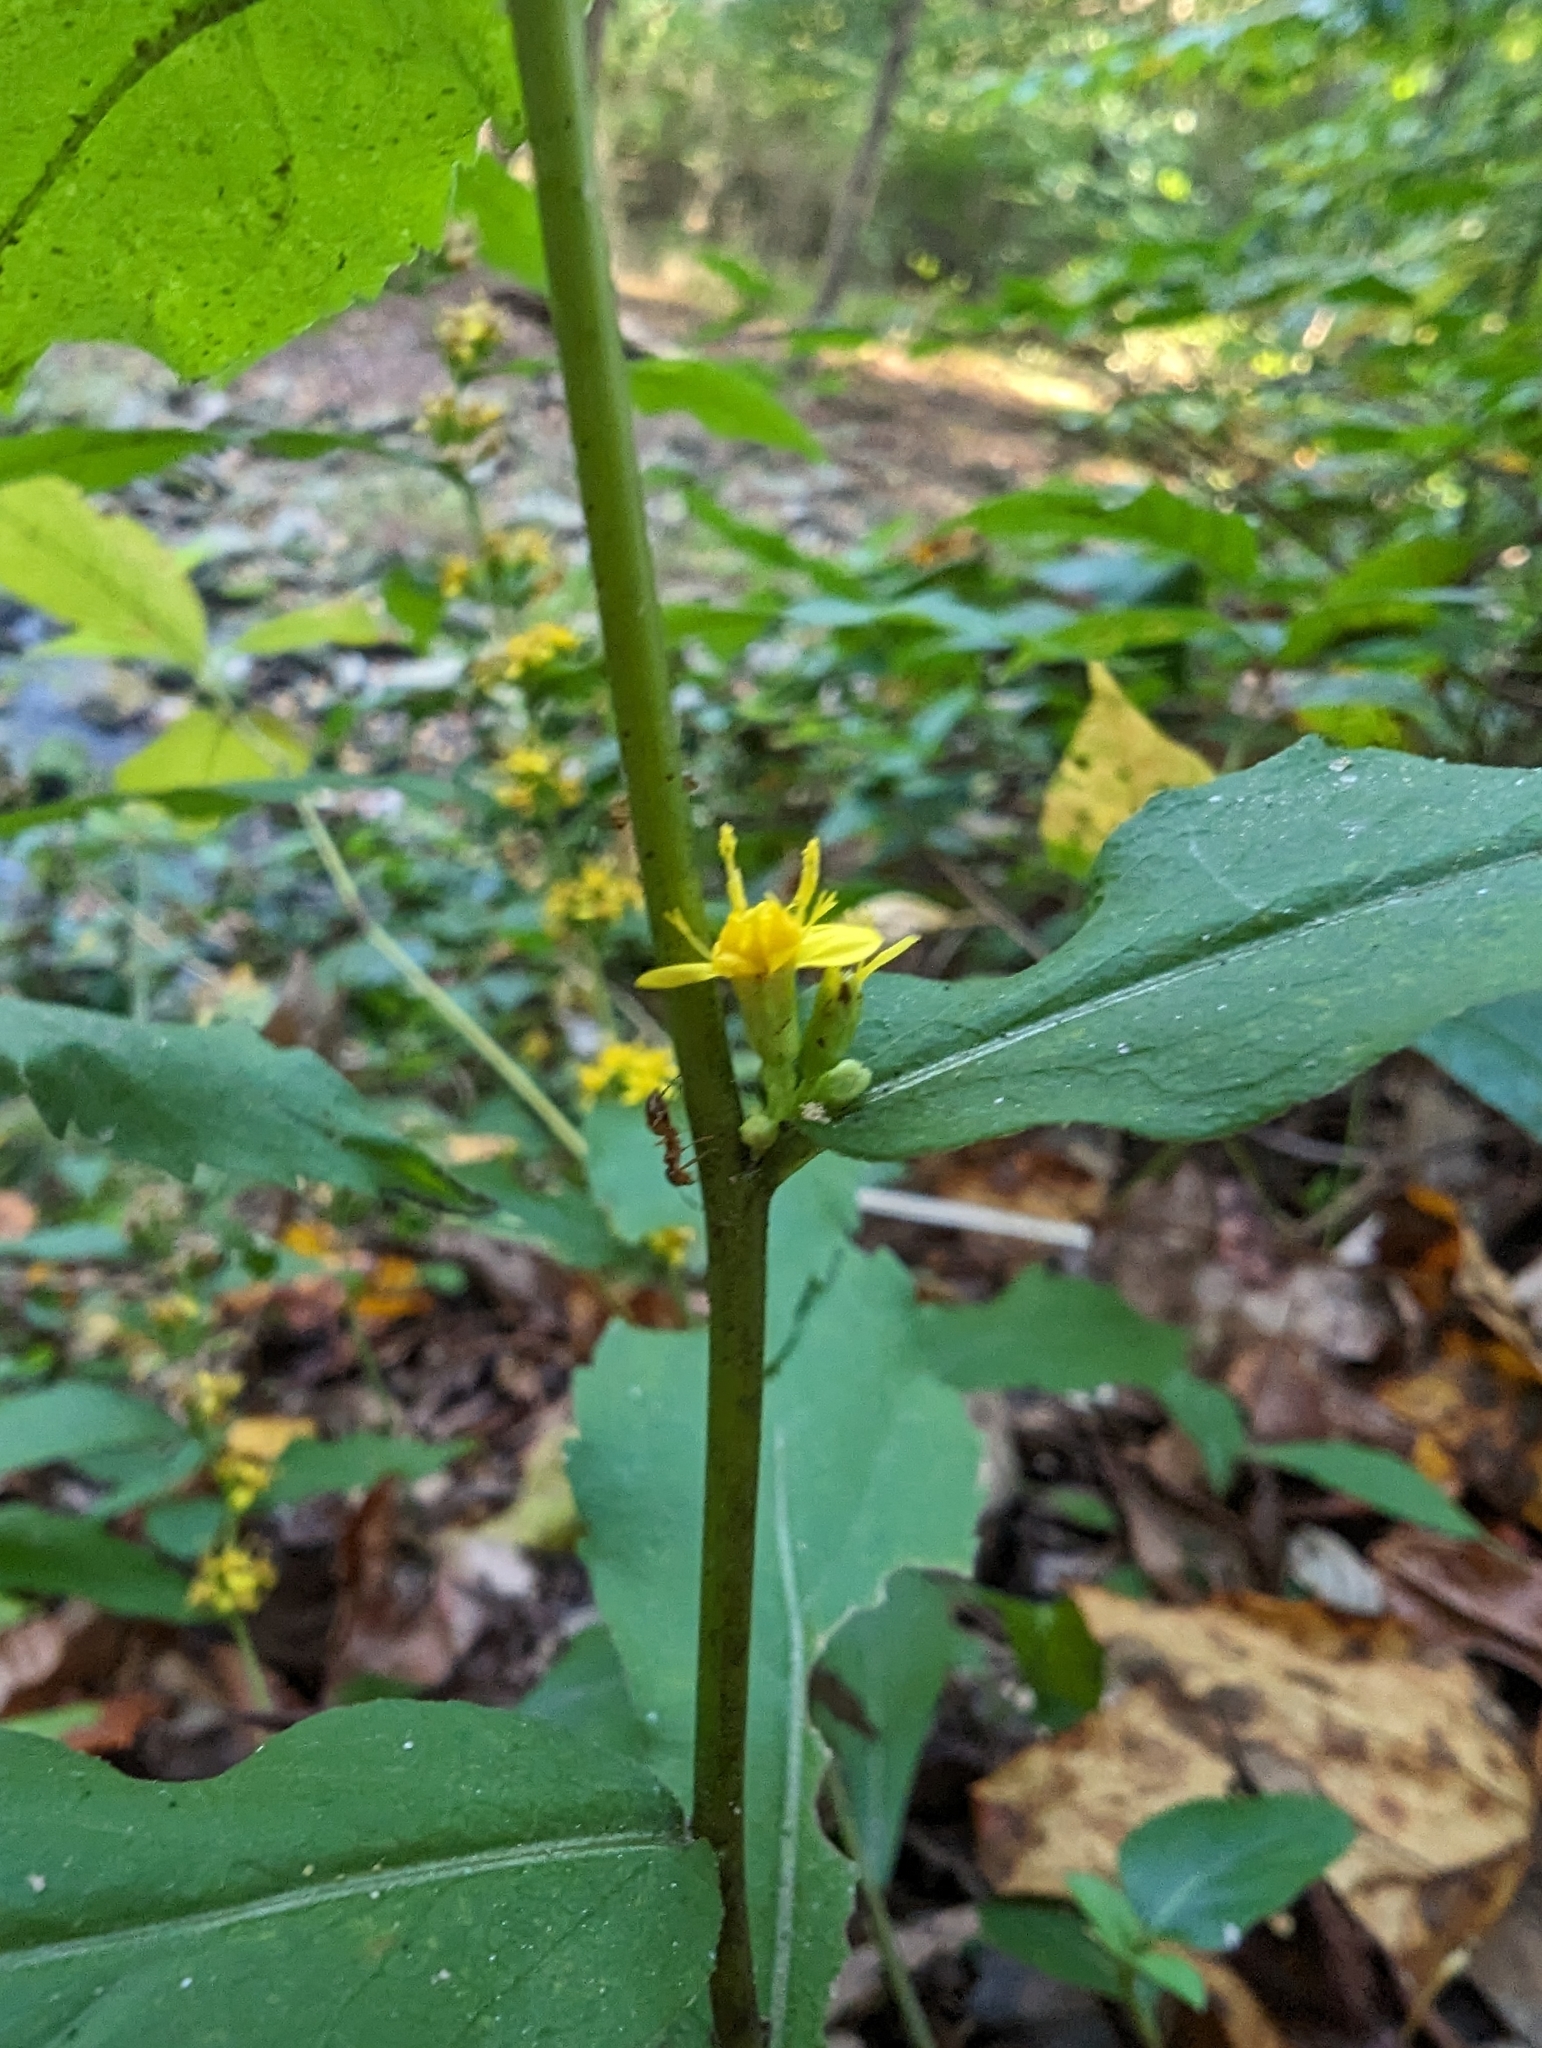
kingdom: Plantae
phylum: Tracheophyta
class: Magnoliopsida
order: Asterales
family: Asteraceae
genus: Solidago
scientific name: Solidago caesia
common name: Woodland goldenrod
